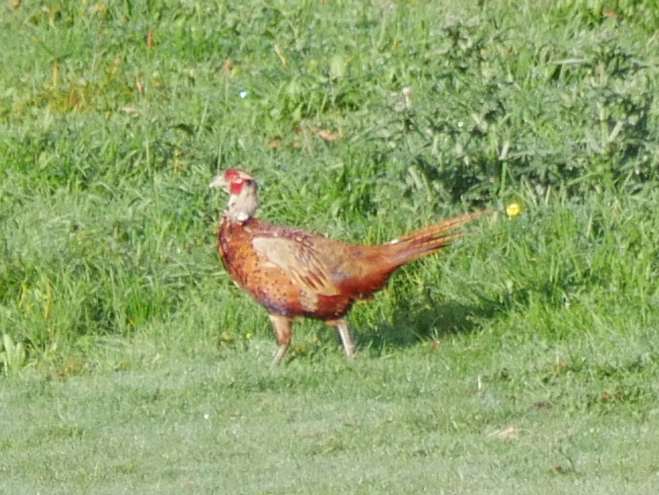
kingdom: Animalia
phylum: Chordata
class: Aves
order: Galliformes
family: Phasianidae
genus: Phasianus
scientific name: Phasianus colchicus
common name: Common pheasant
